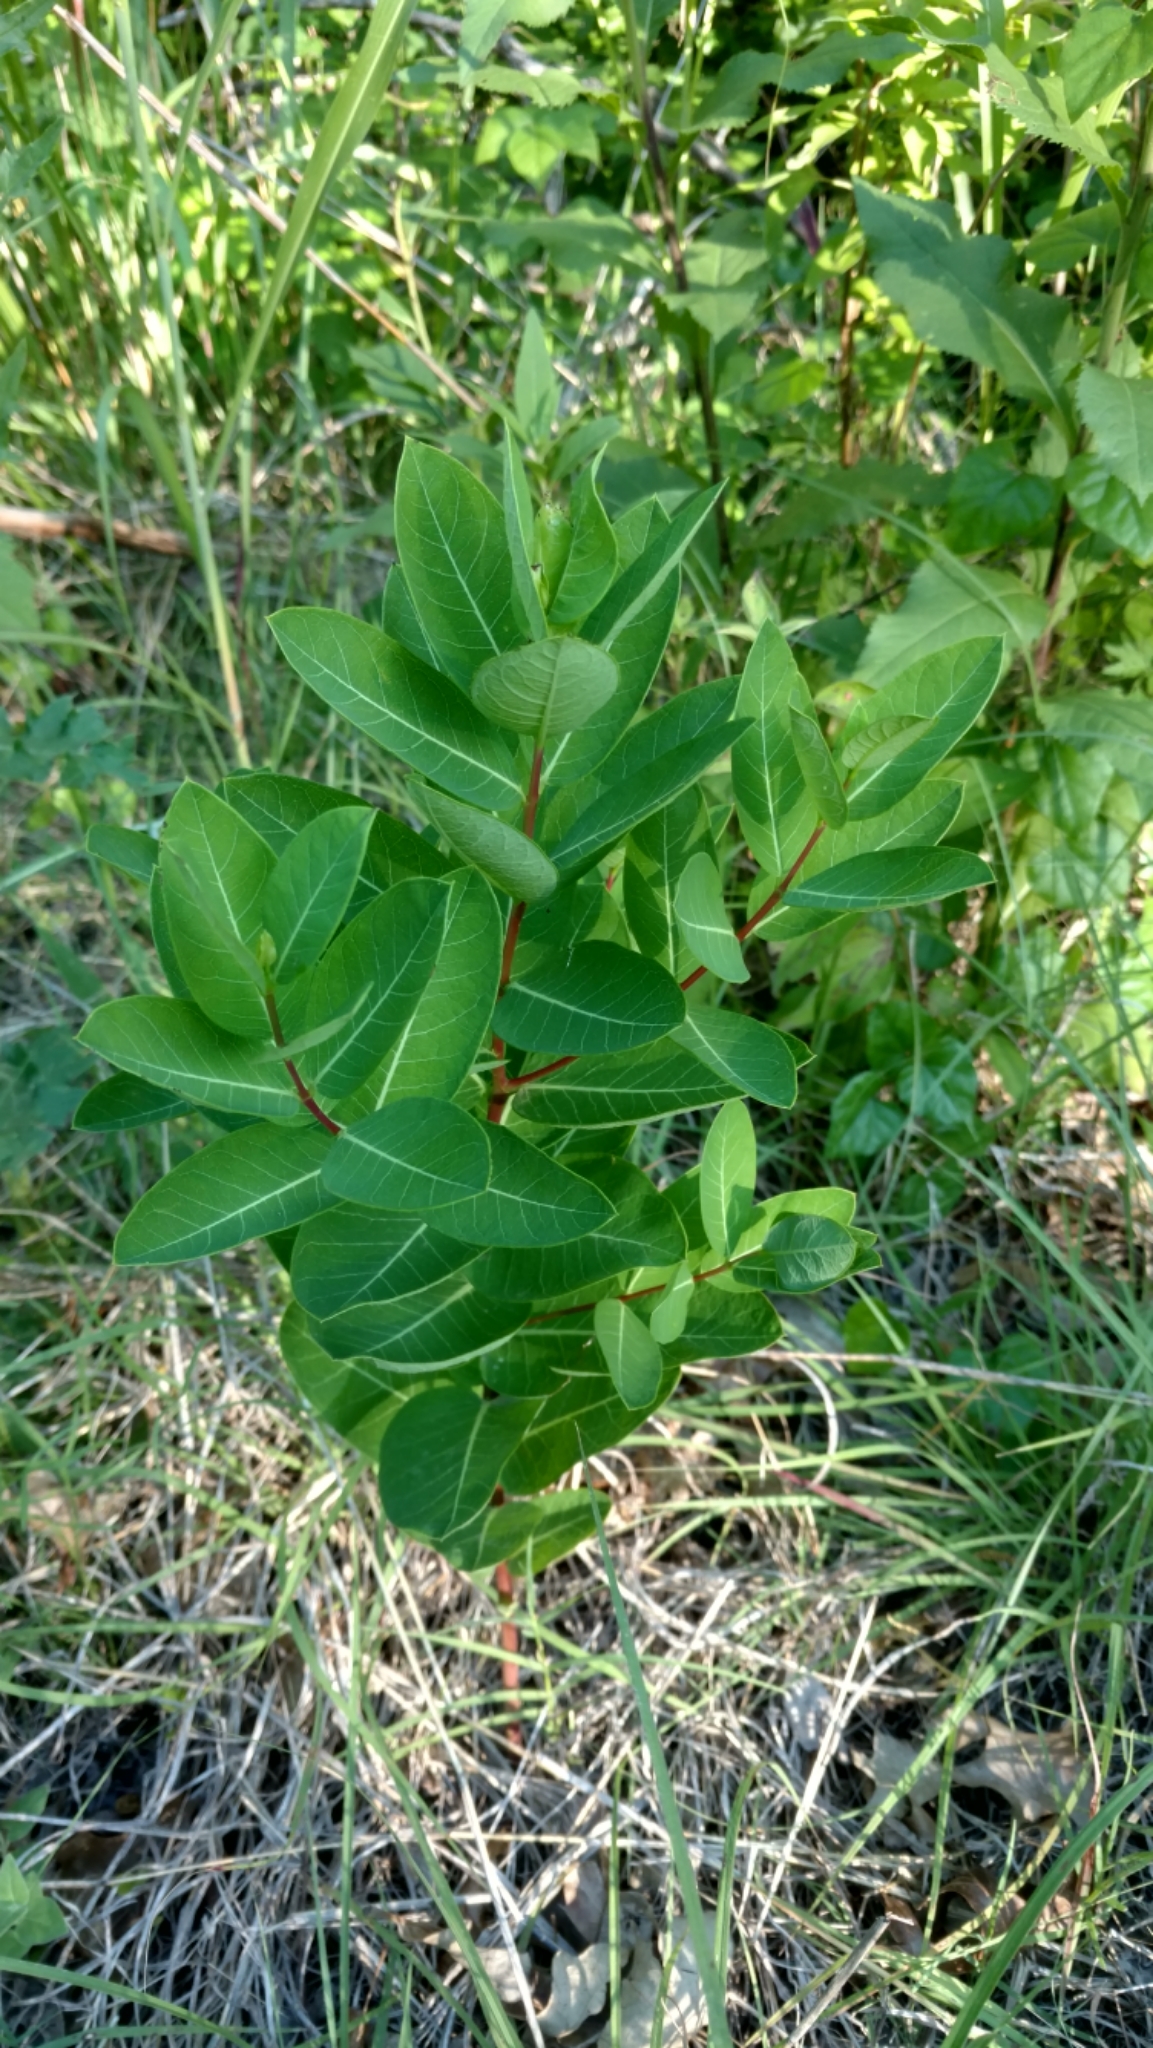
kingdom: Plantae
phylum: Tracheophyta
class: Magnoliopsida
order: Gentianales
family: Apocynaceae
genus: Apocynum
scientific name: Apocynum cannabinum
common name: Hemp dogbane
